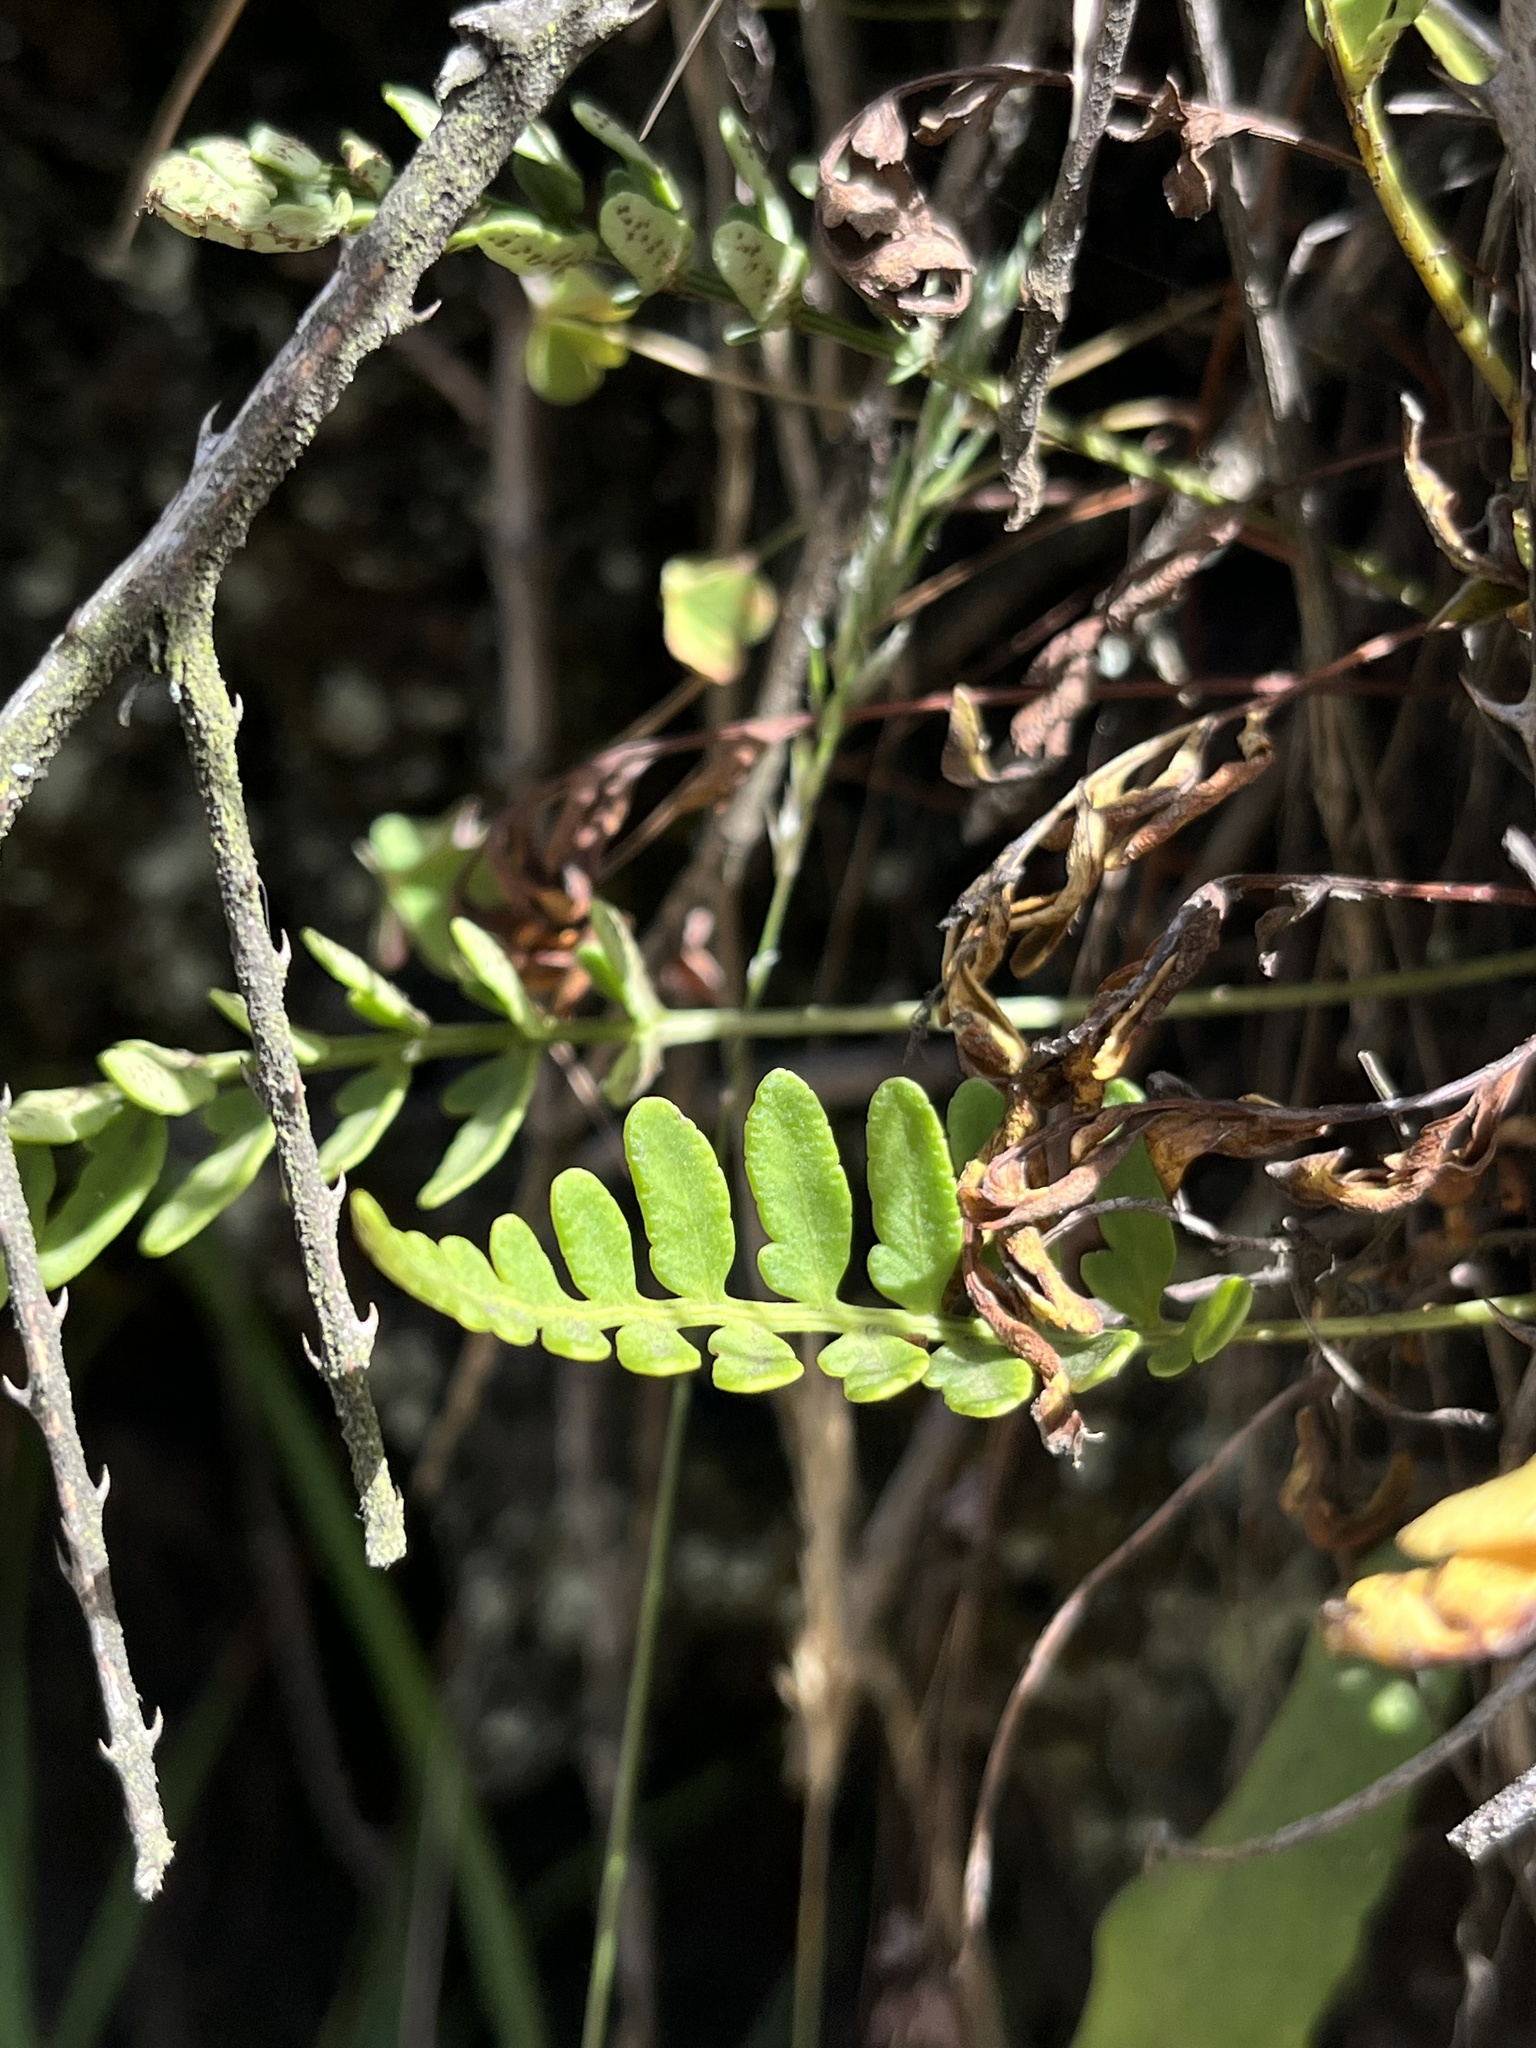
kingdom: Plantae
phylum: Tracheophyta
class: Polypodiopsida
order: Polypodiales
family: Polypodiaceae
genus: Pleopeltis
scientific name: Pleopeltis murora
